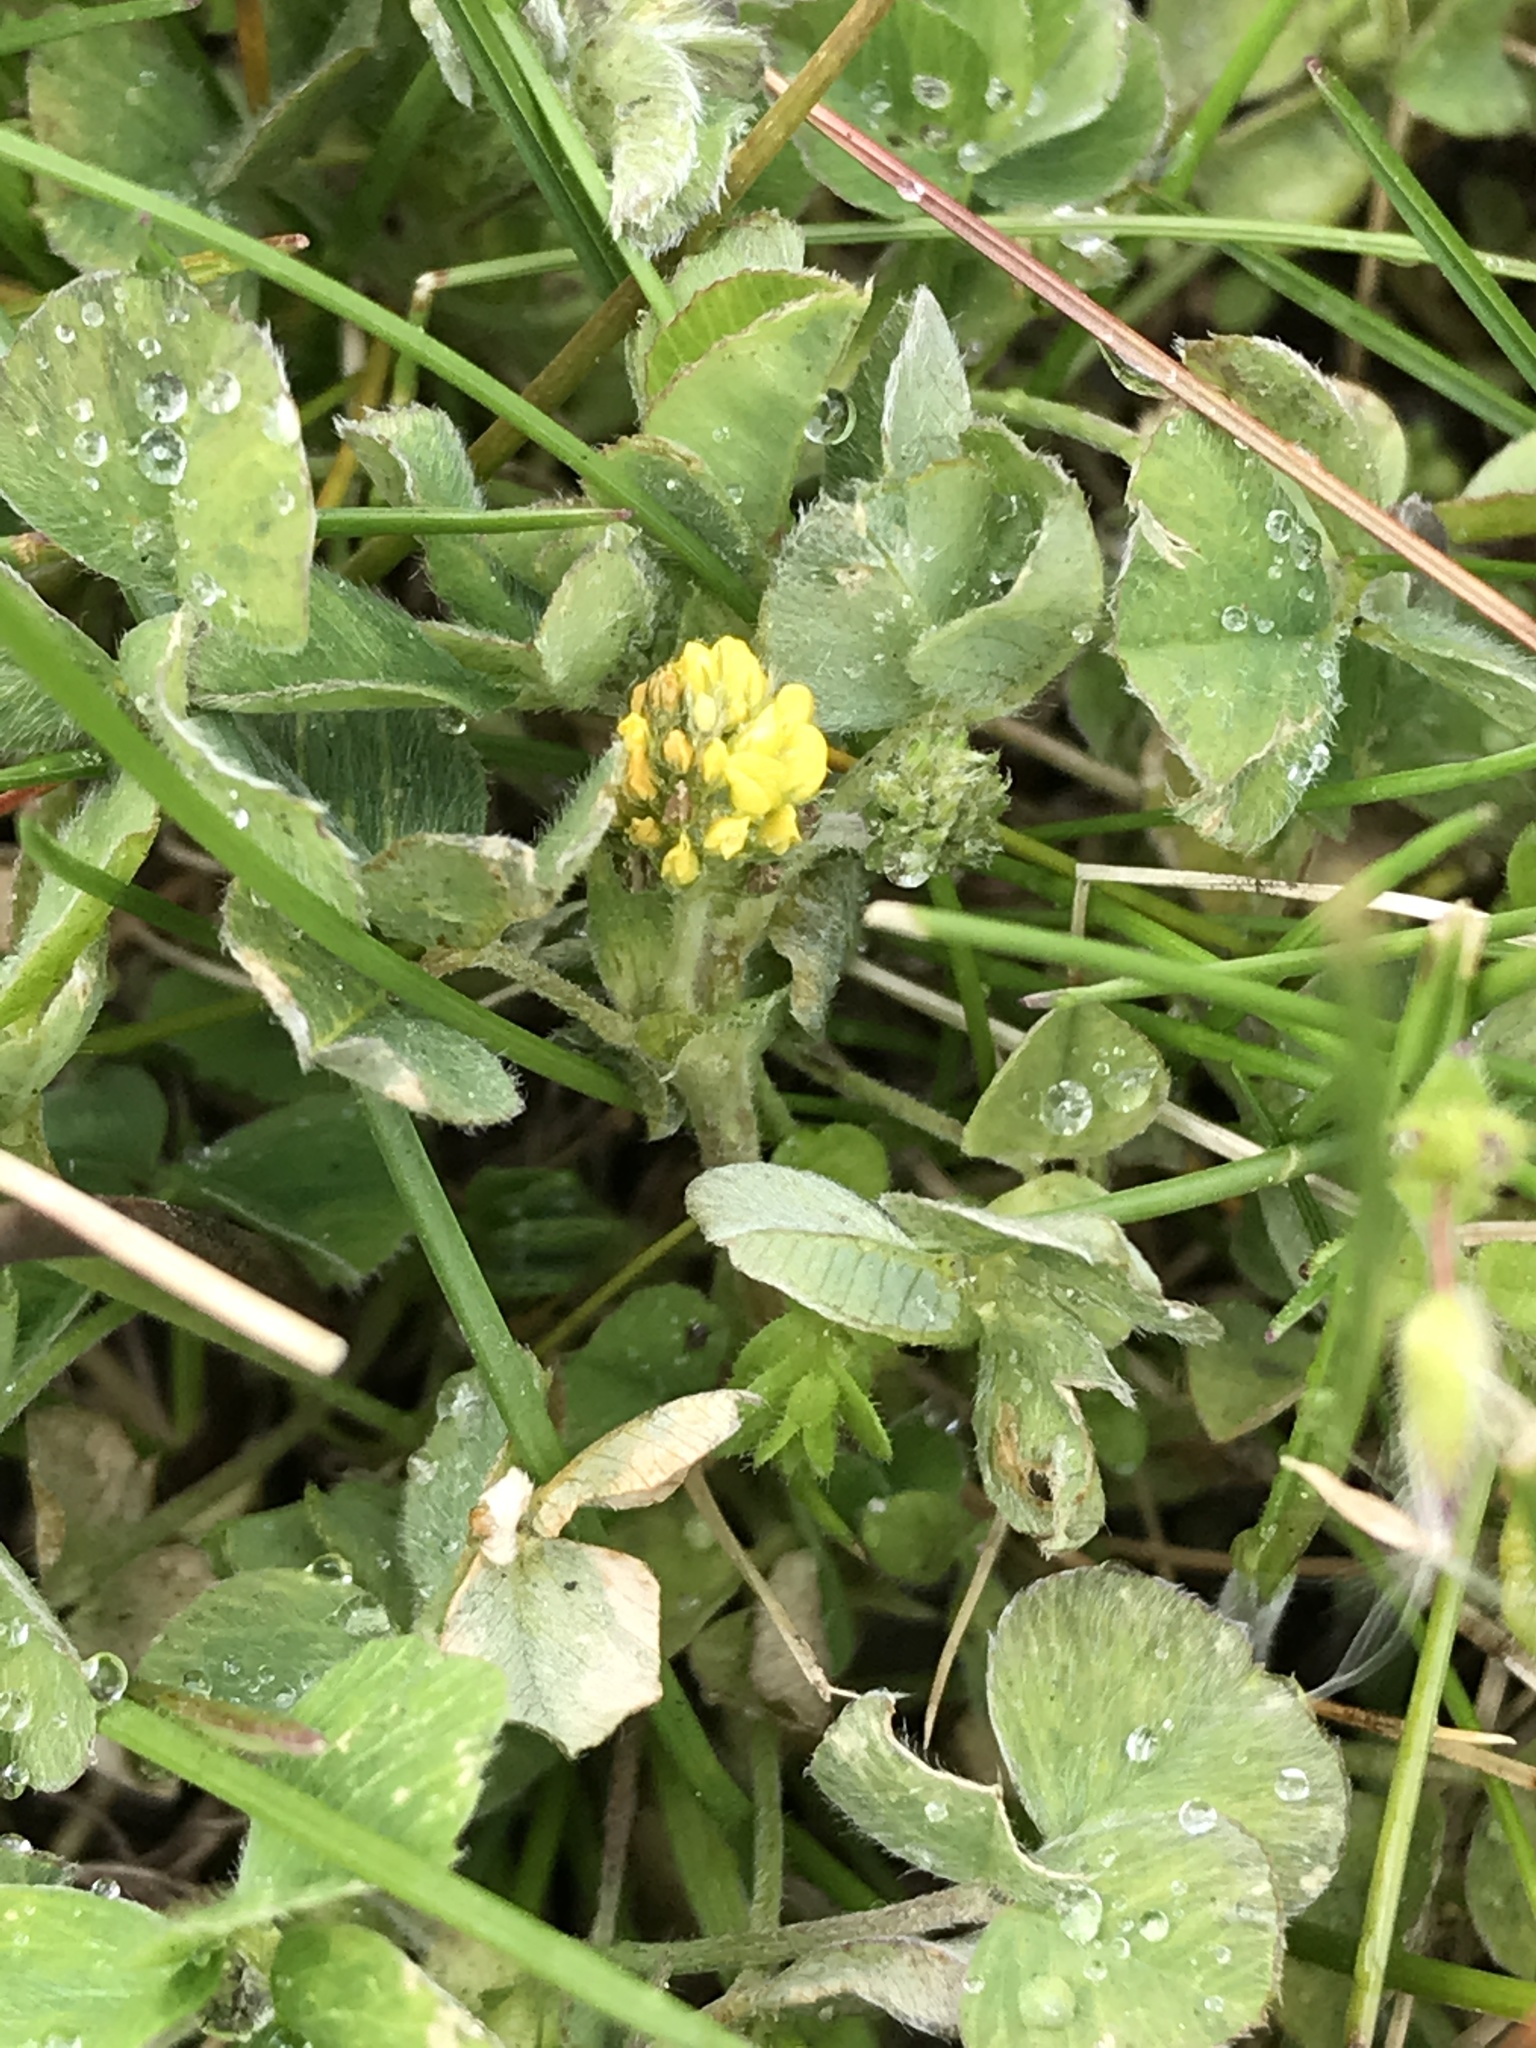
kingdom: Plantae
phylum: Tracheophyta
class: Magnoliopsida
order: Fabales
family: Fabaceae
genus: Medicago
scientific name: Medicago lupulina
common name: Black medick
